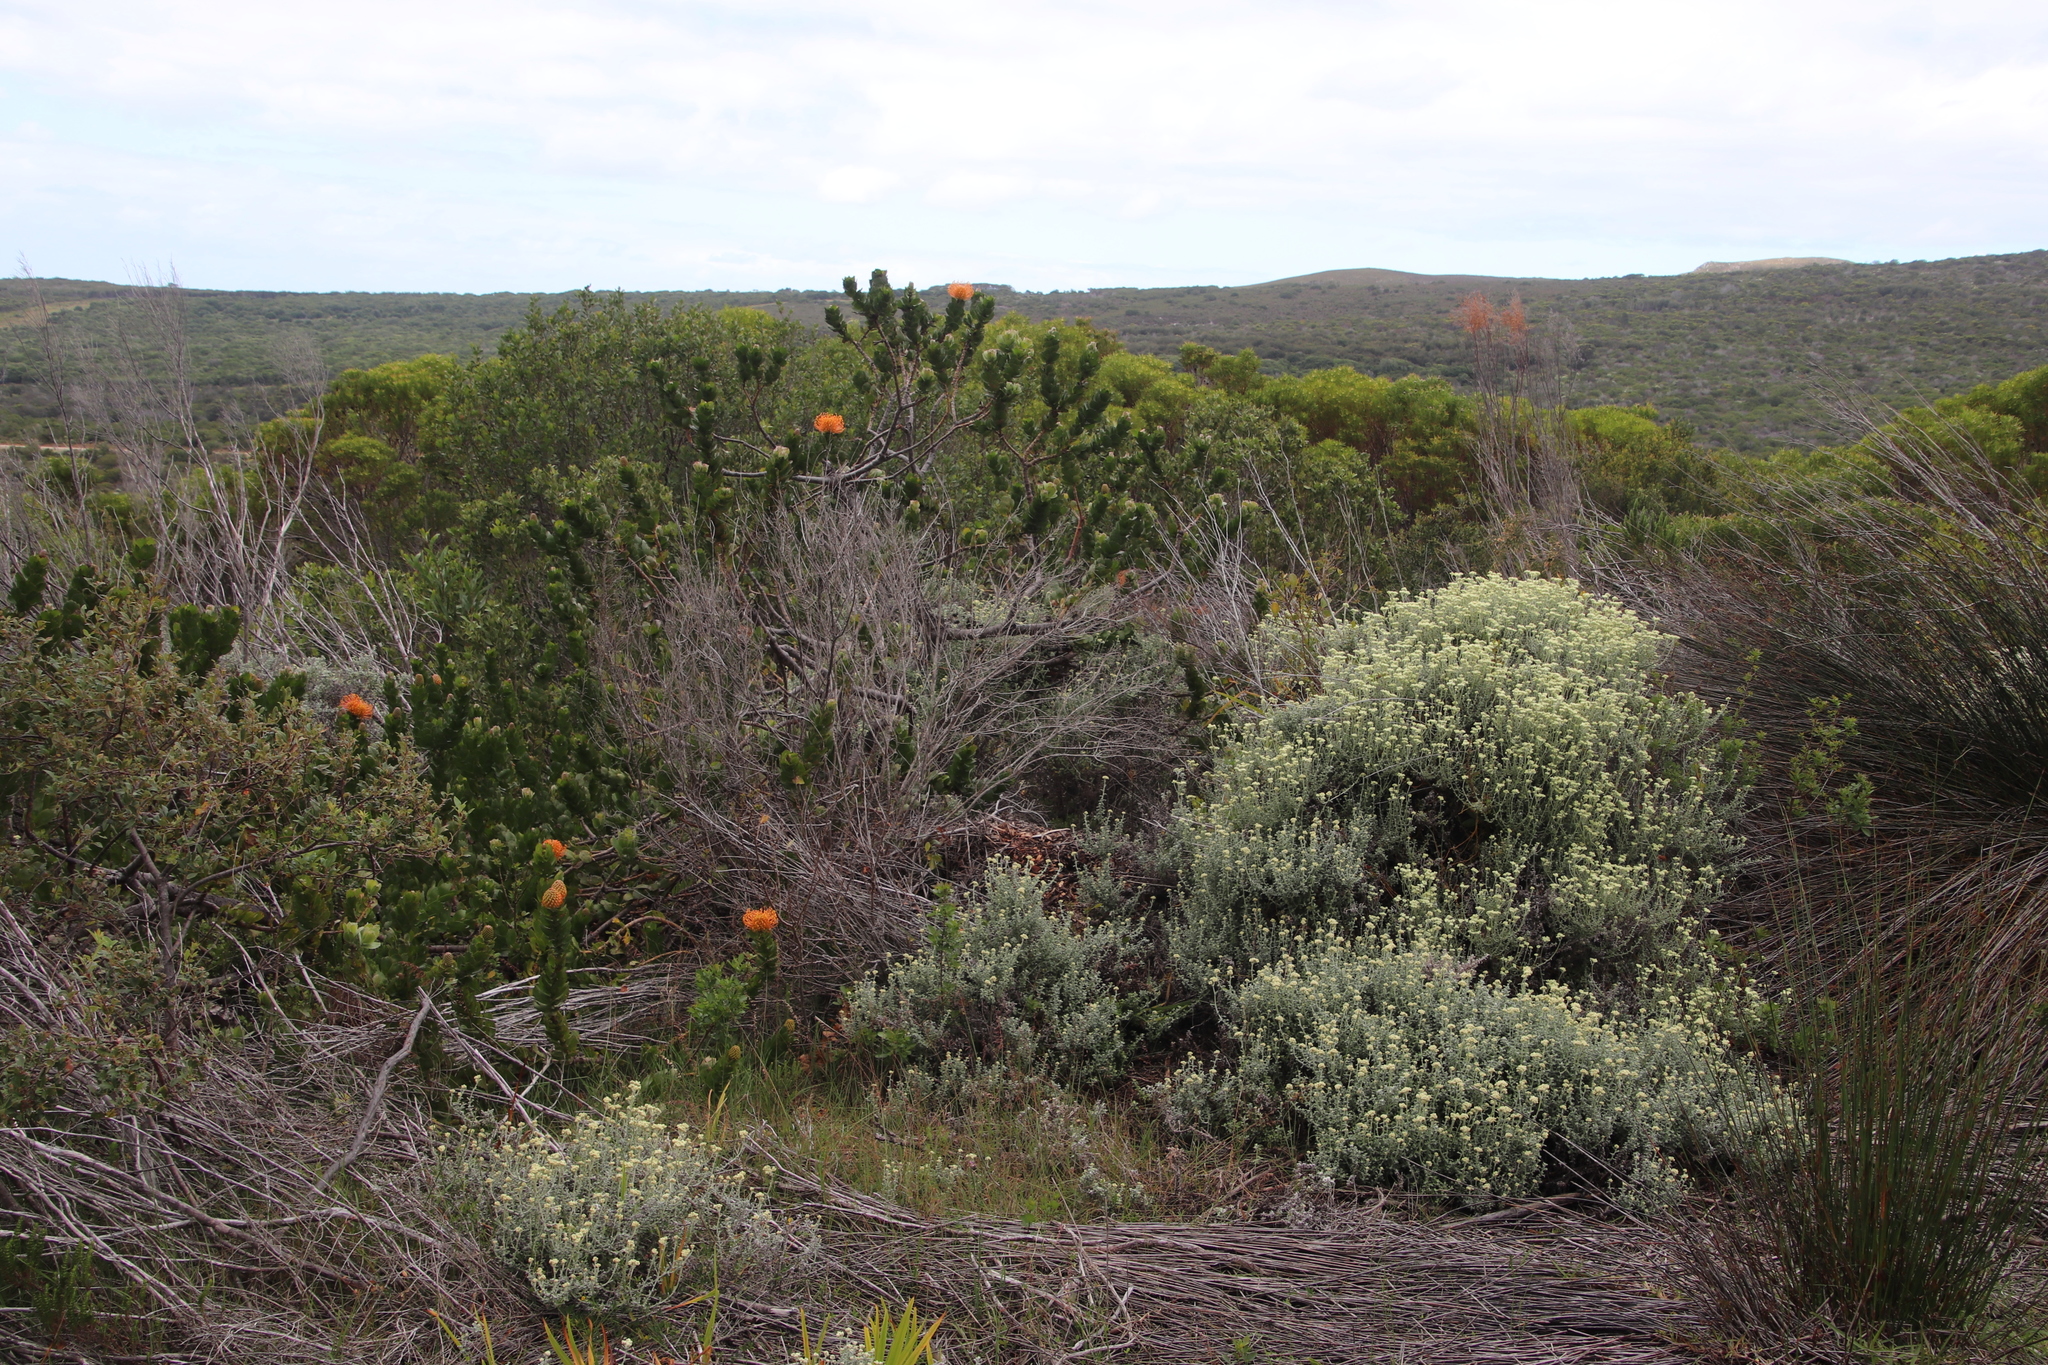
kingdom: Plantae
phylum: Tracheophyta
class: Magnoliopsida
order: Proteales
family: Proteaceae
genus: Leucospermum
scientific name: Leucospermum patersonii
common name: False tree pincushion
